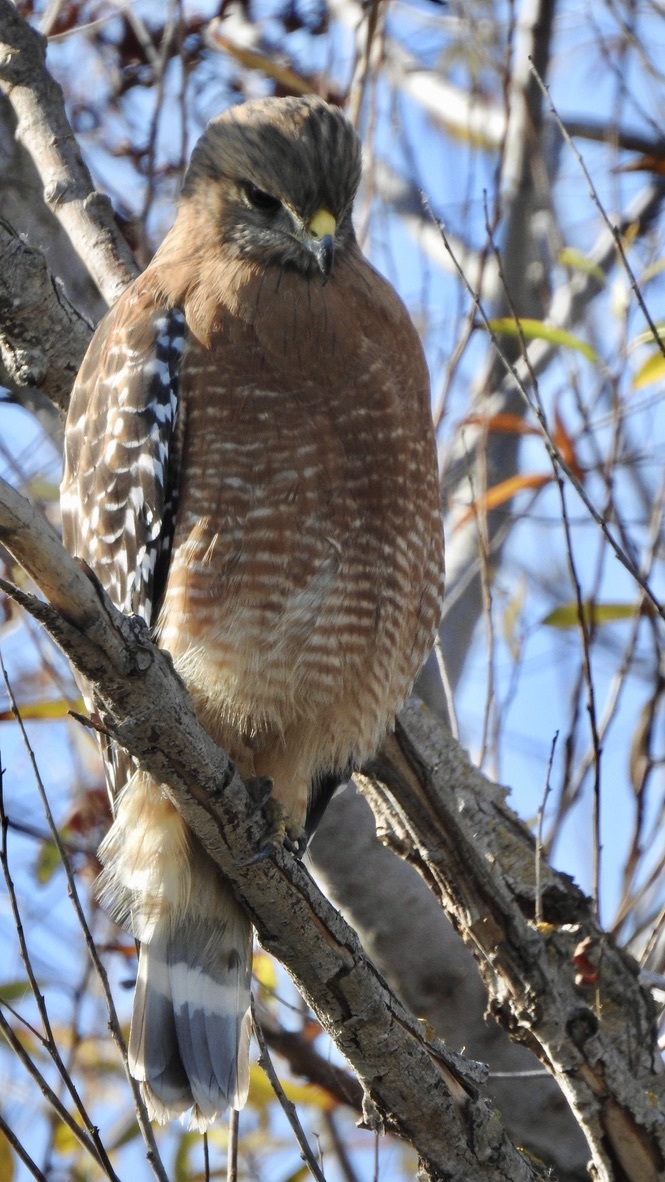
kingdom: Animalia
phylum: Chordata
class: Aves
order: Accipitriformes
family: Accipitridae
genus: Buteo
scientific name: Buteo lineatus
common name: Red-shouldered hawk
